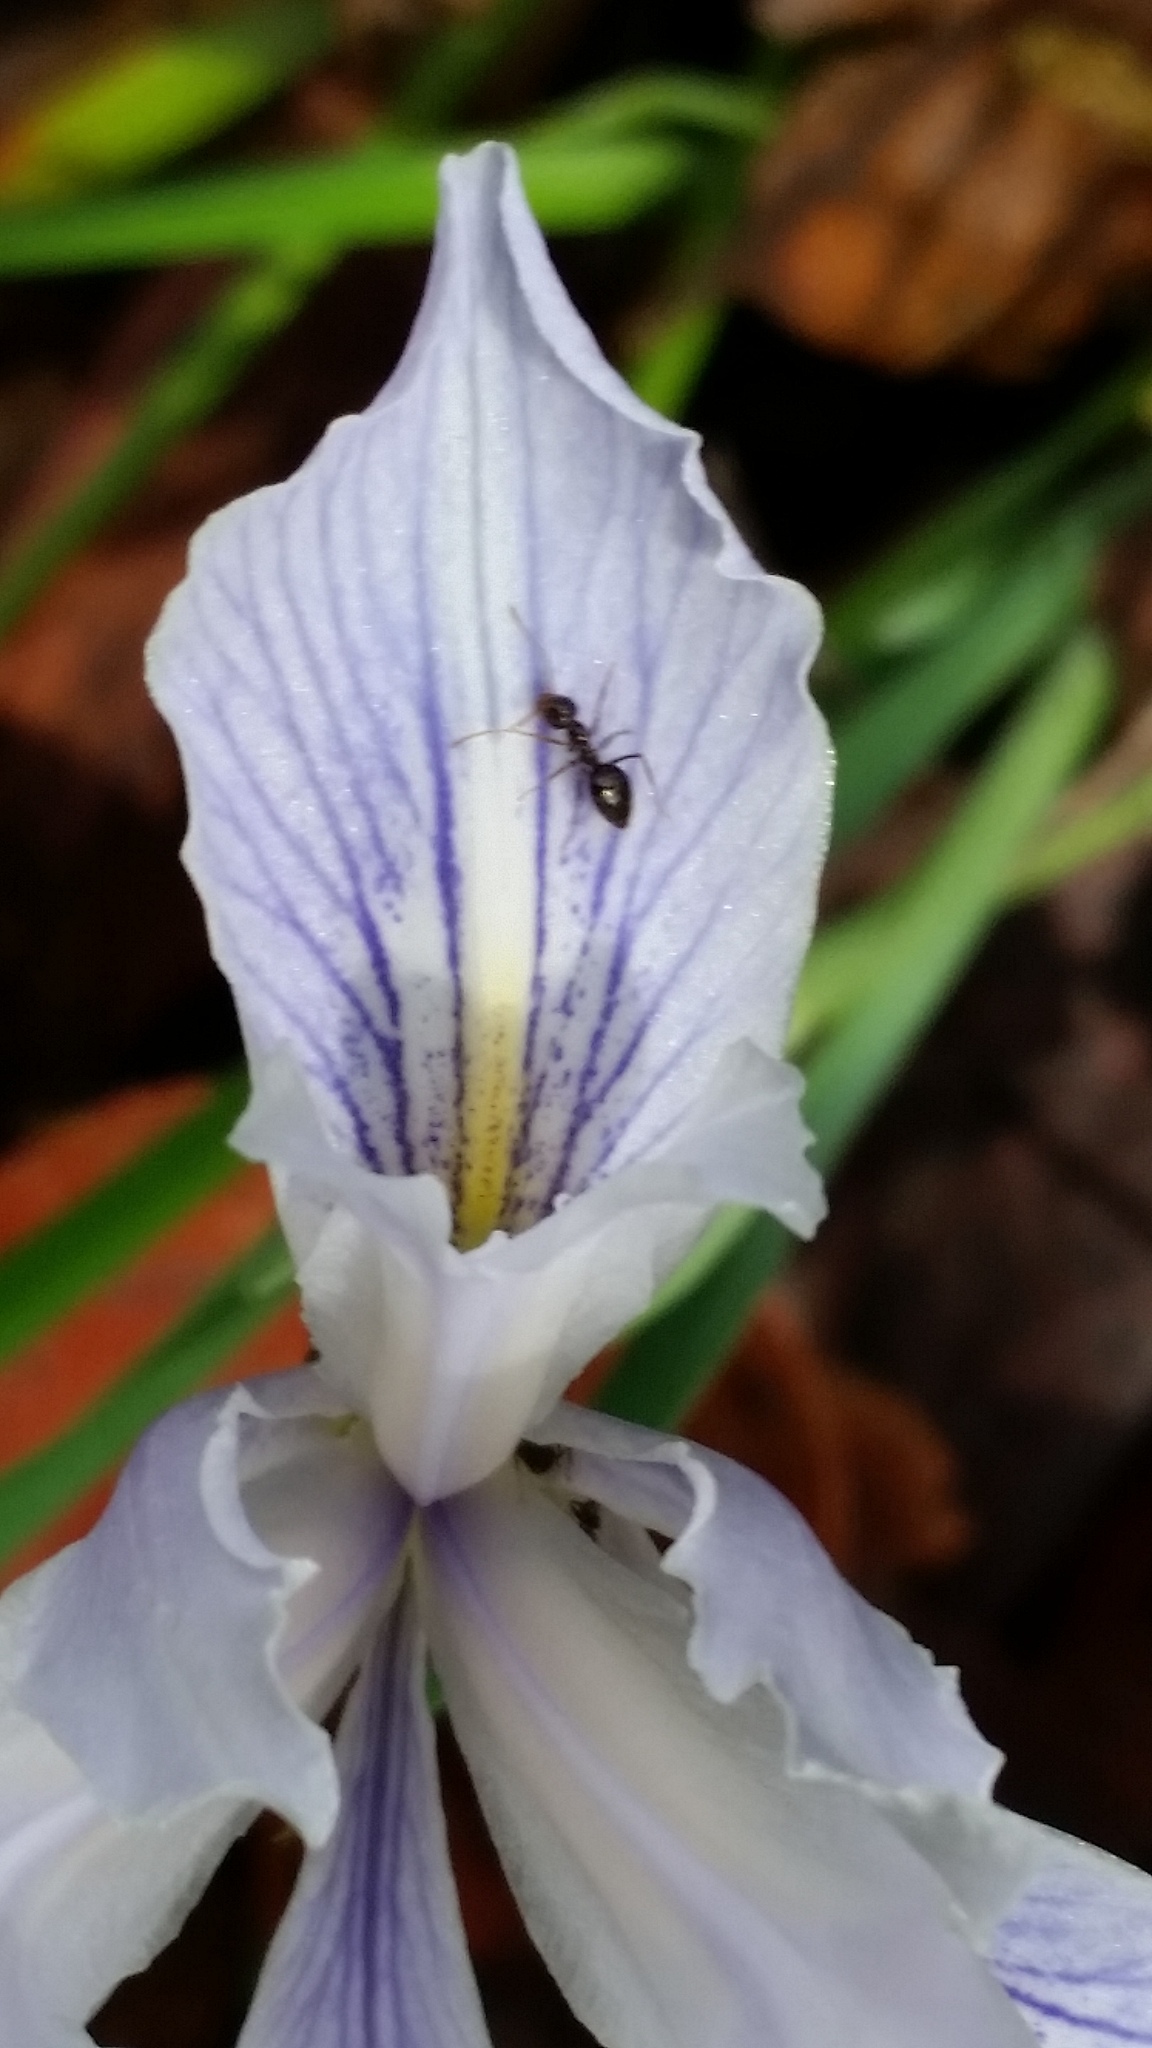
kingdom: Animalia
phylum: Arthropoda
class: Insecta
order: Hymenoptera
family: Formicidae
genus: Prenolepis
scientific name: Prenolepis imparis
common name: Small honey ant
